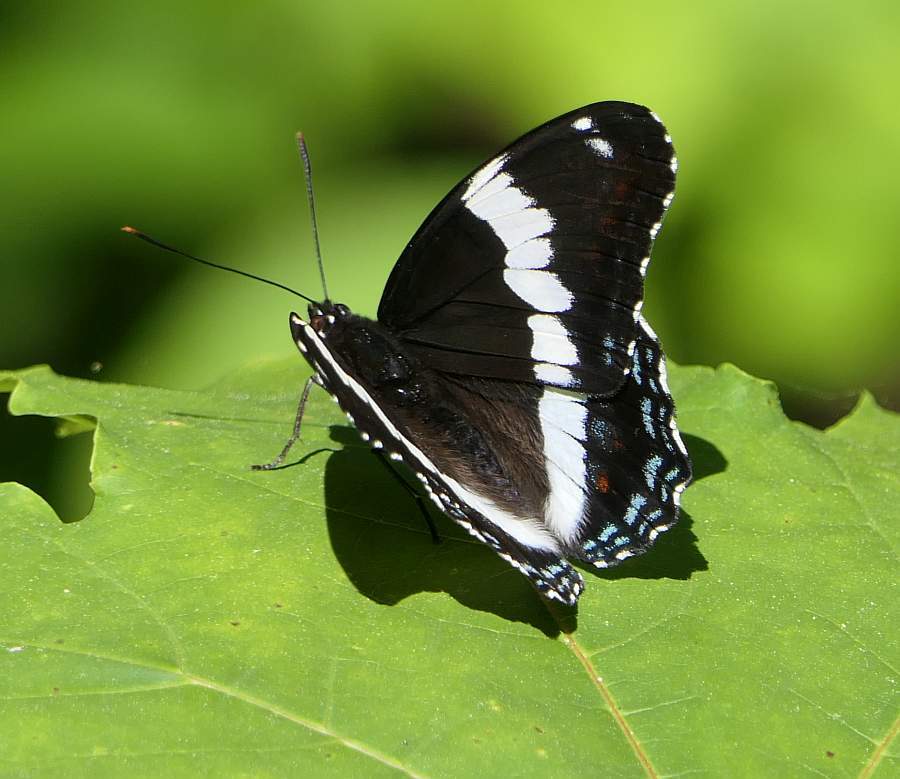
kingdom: Animalia
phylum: Arthropoda
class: Insecta
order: Lepidoptera
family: Nymphalidae
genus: Limenitis
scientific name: Limenitis arthemis
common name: Red-spotted admiral
